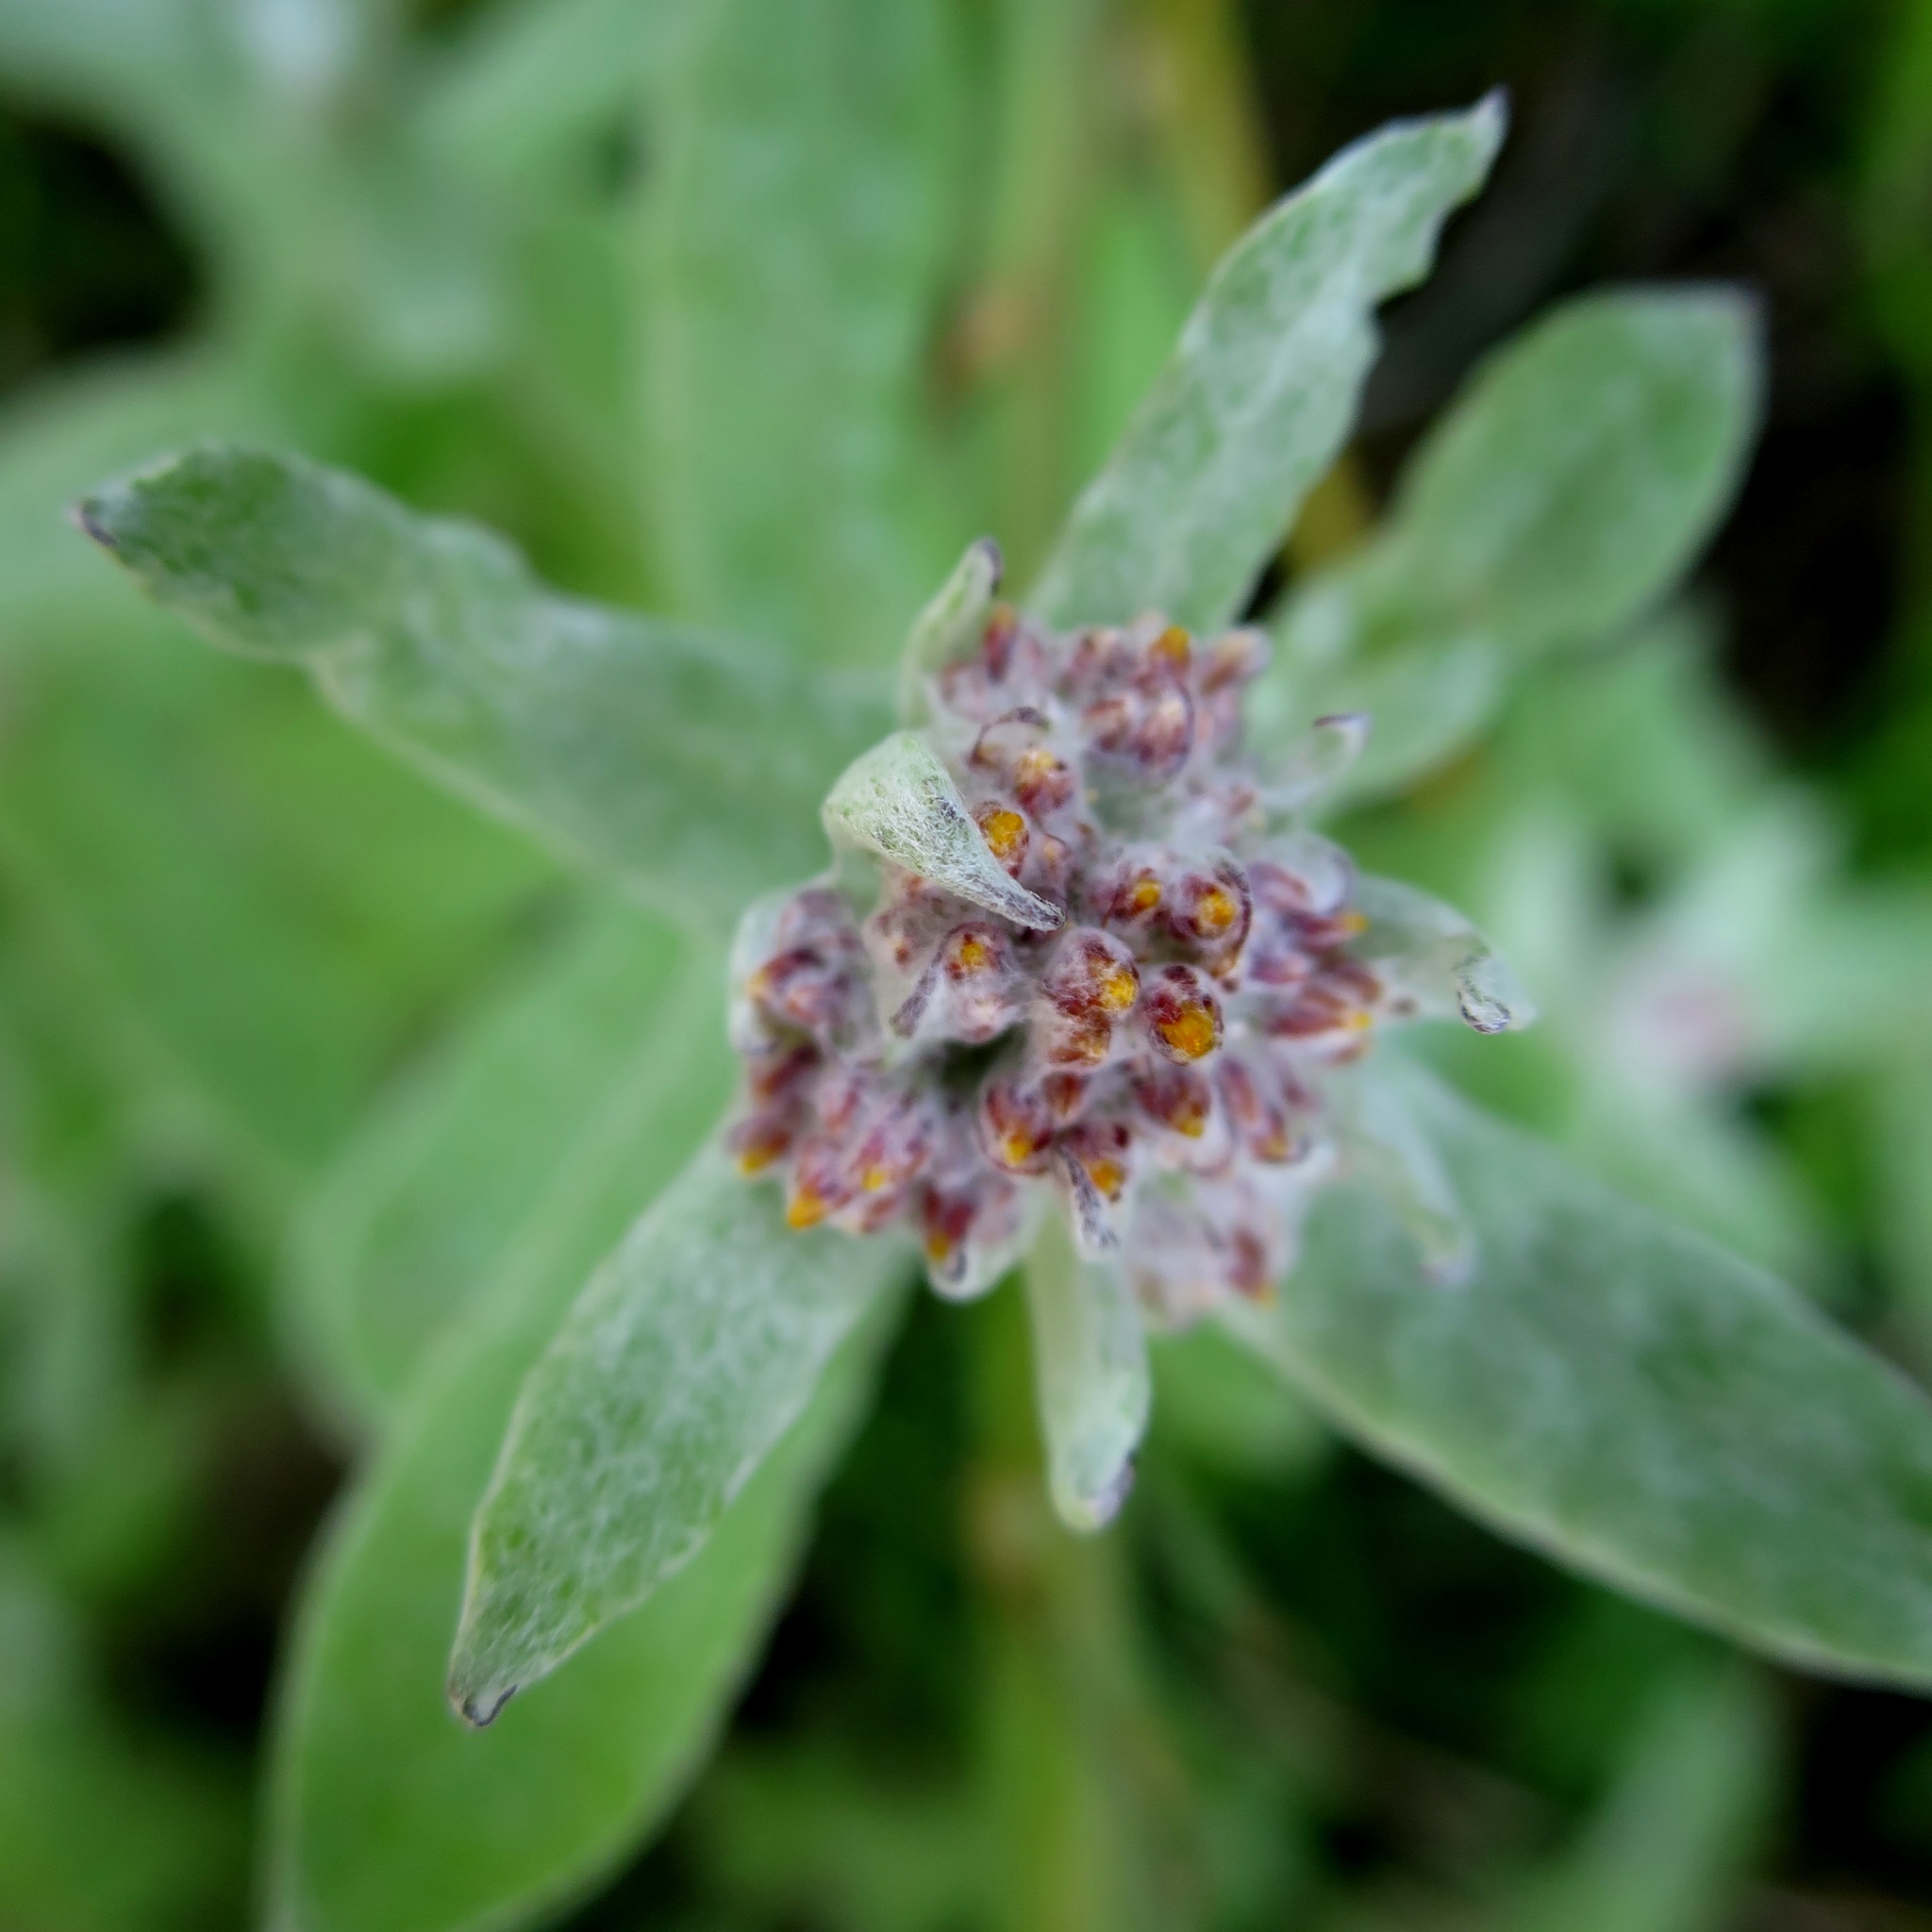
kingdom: Plantae
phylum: Tracheophyta
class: Magnoliopsida
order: Asterales
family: Asteraceae
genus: Helichrysum
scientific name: Helichrysum dasyanthum
